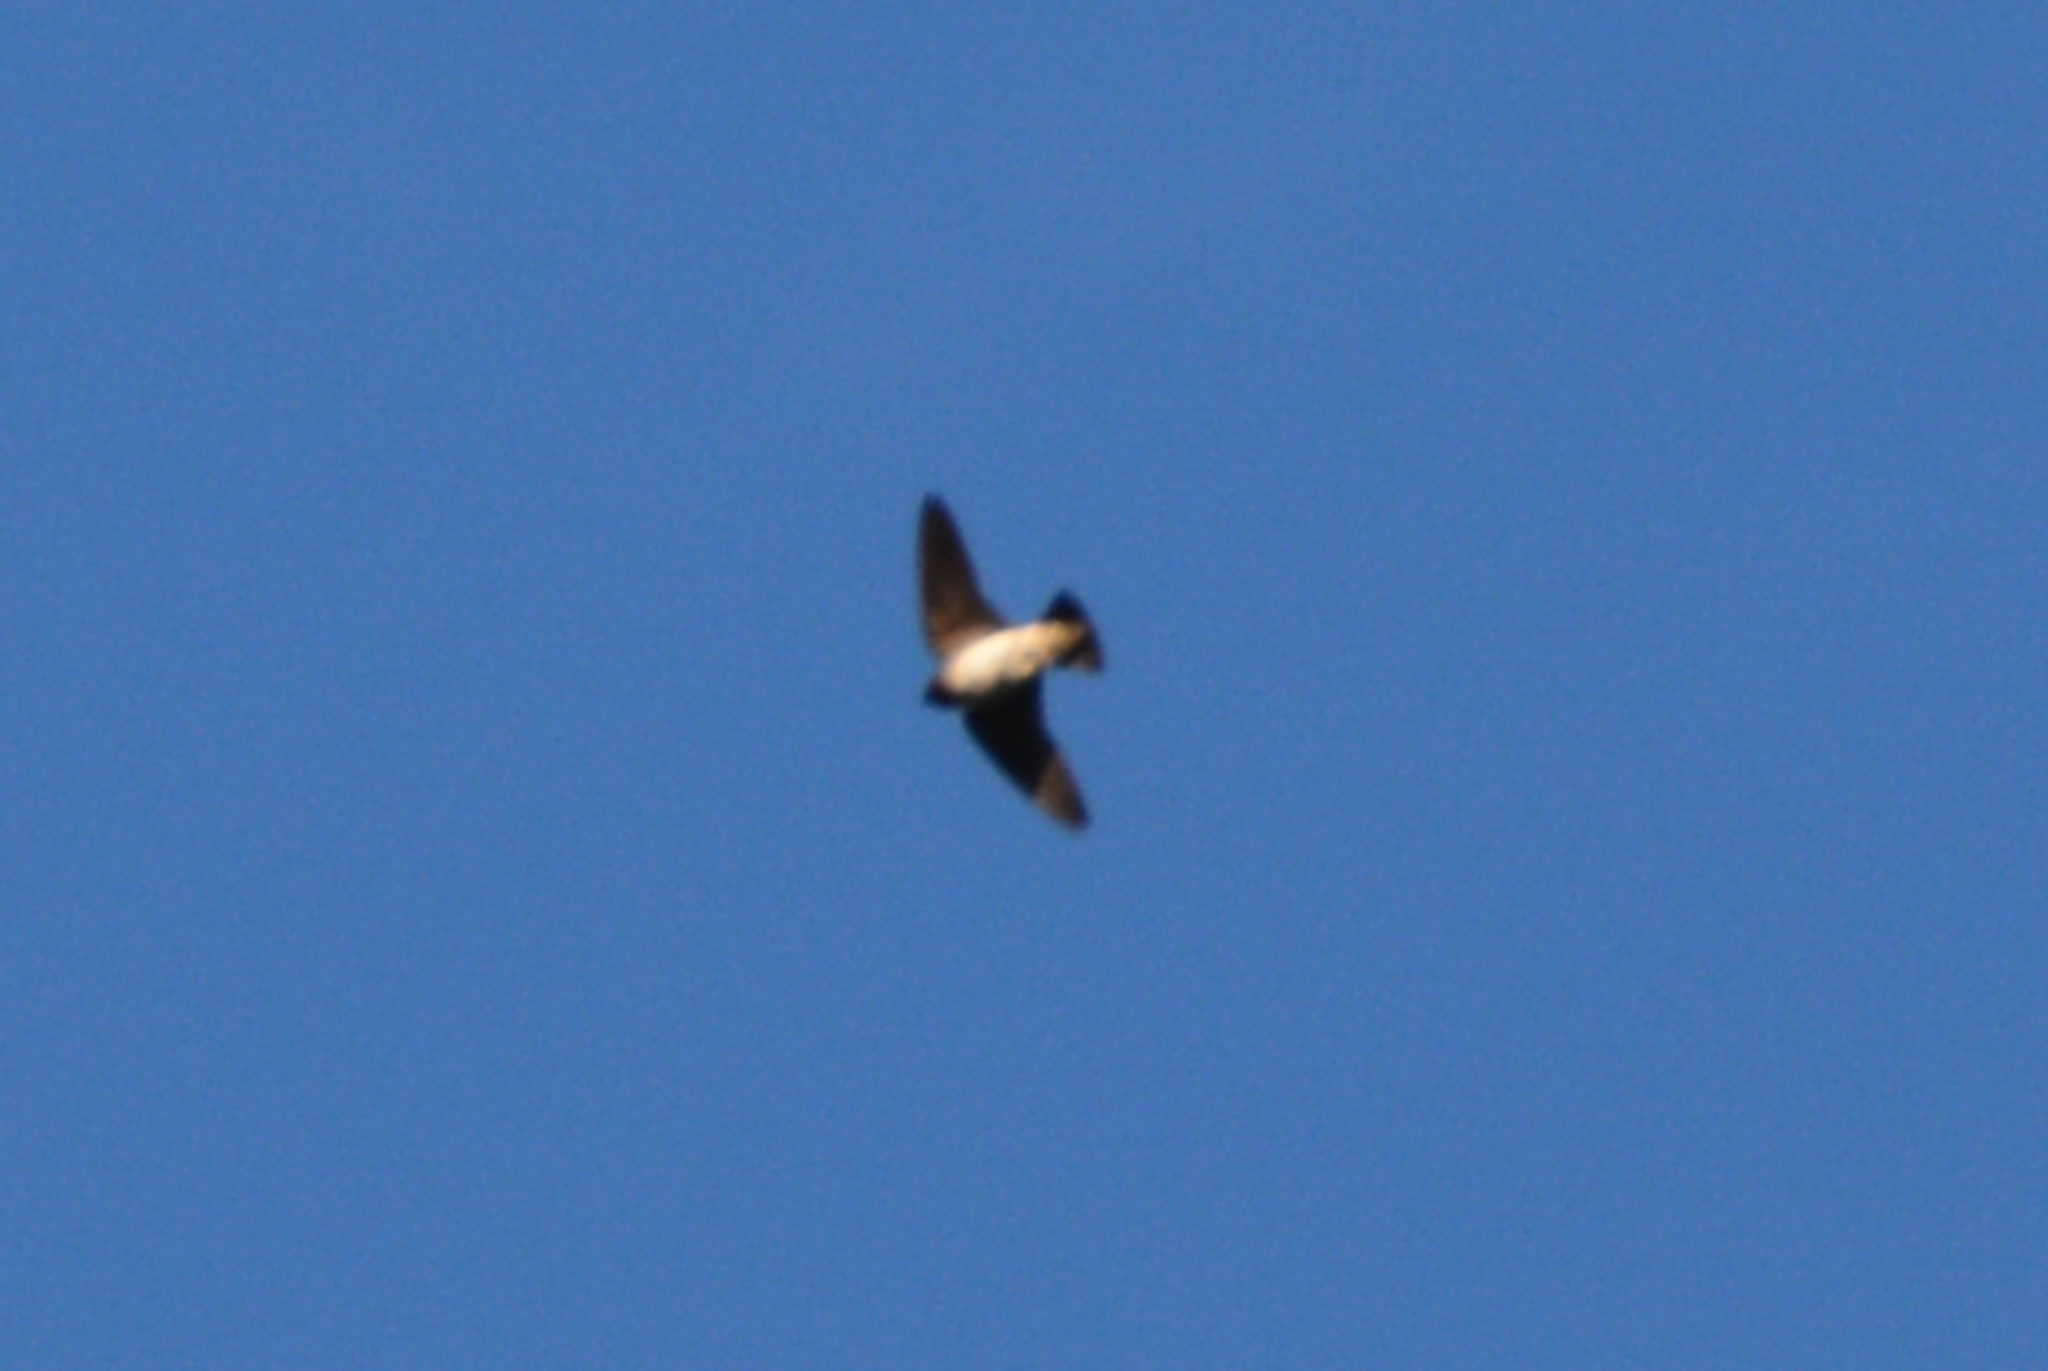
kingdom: Animalia
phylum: Chordata
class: Aves
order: Passeriformes
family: Hirundinidae
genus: Petrochelidon
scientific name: Petrochelidon pyrrhonota
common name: American cliff swallow
